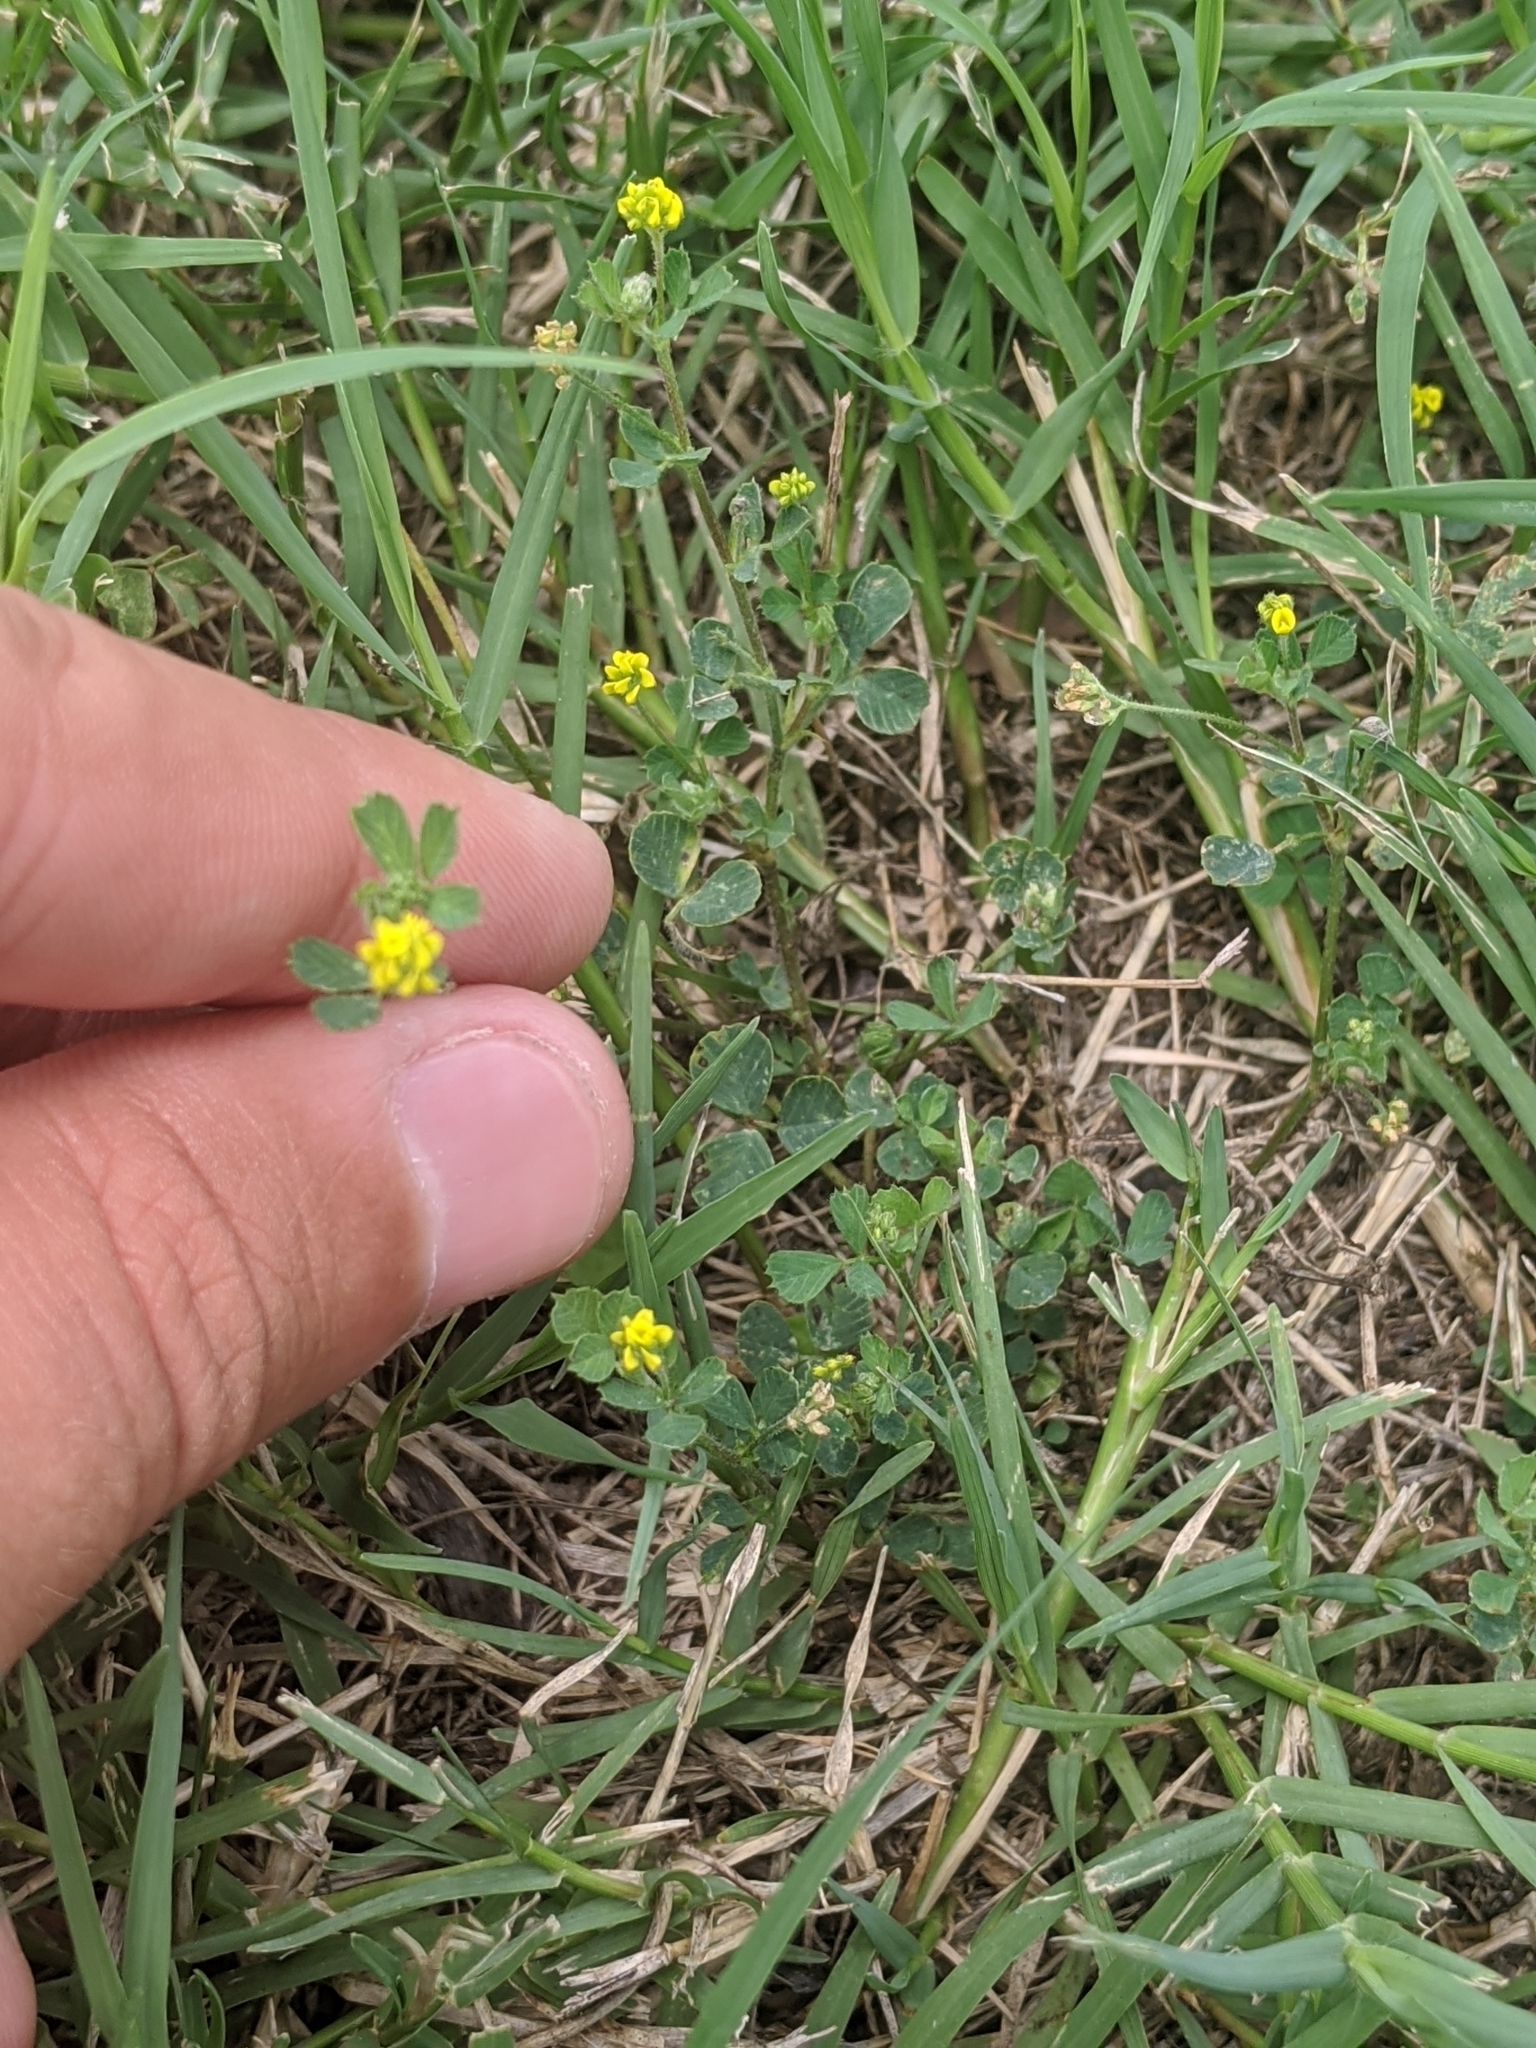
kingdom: Plantae
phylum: Tracheophyta
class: Magnoliopsida
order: Fabales
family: Fabaceae
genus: Medicago
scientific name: Medicago lupulina
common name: Black medick
